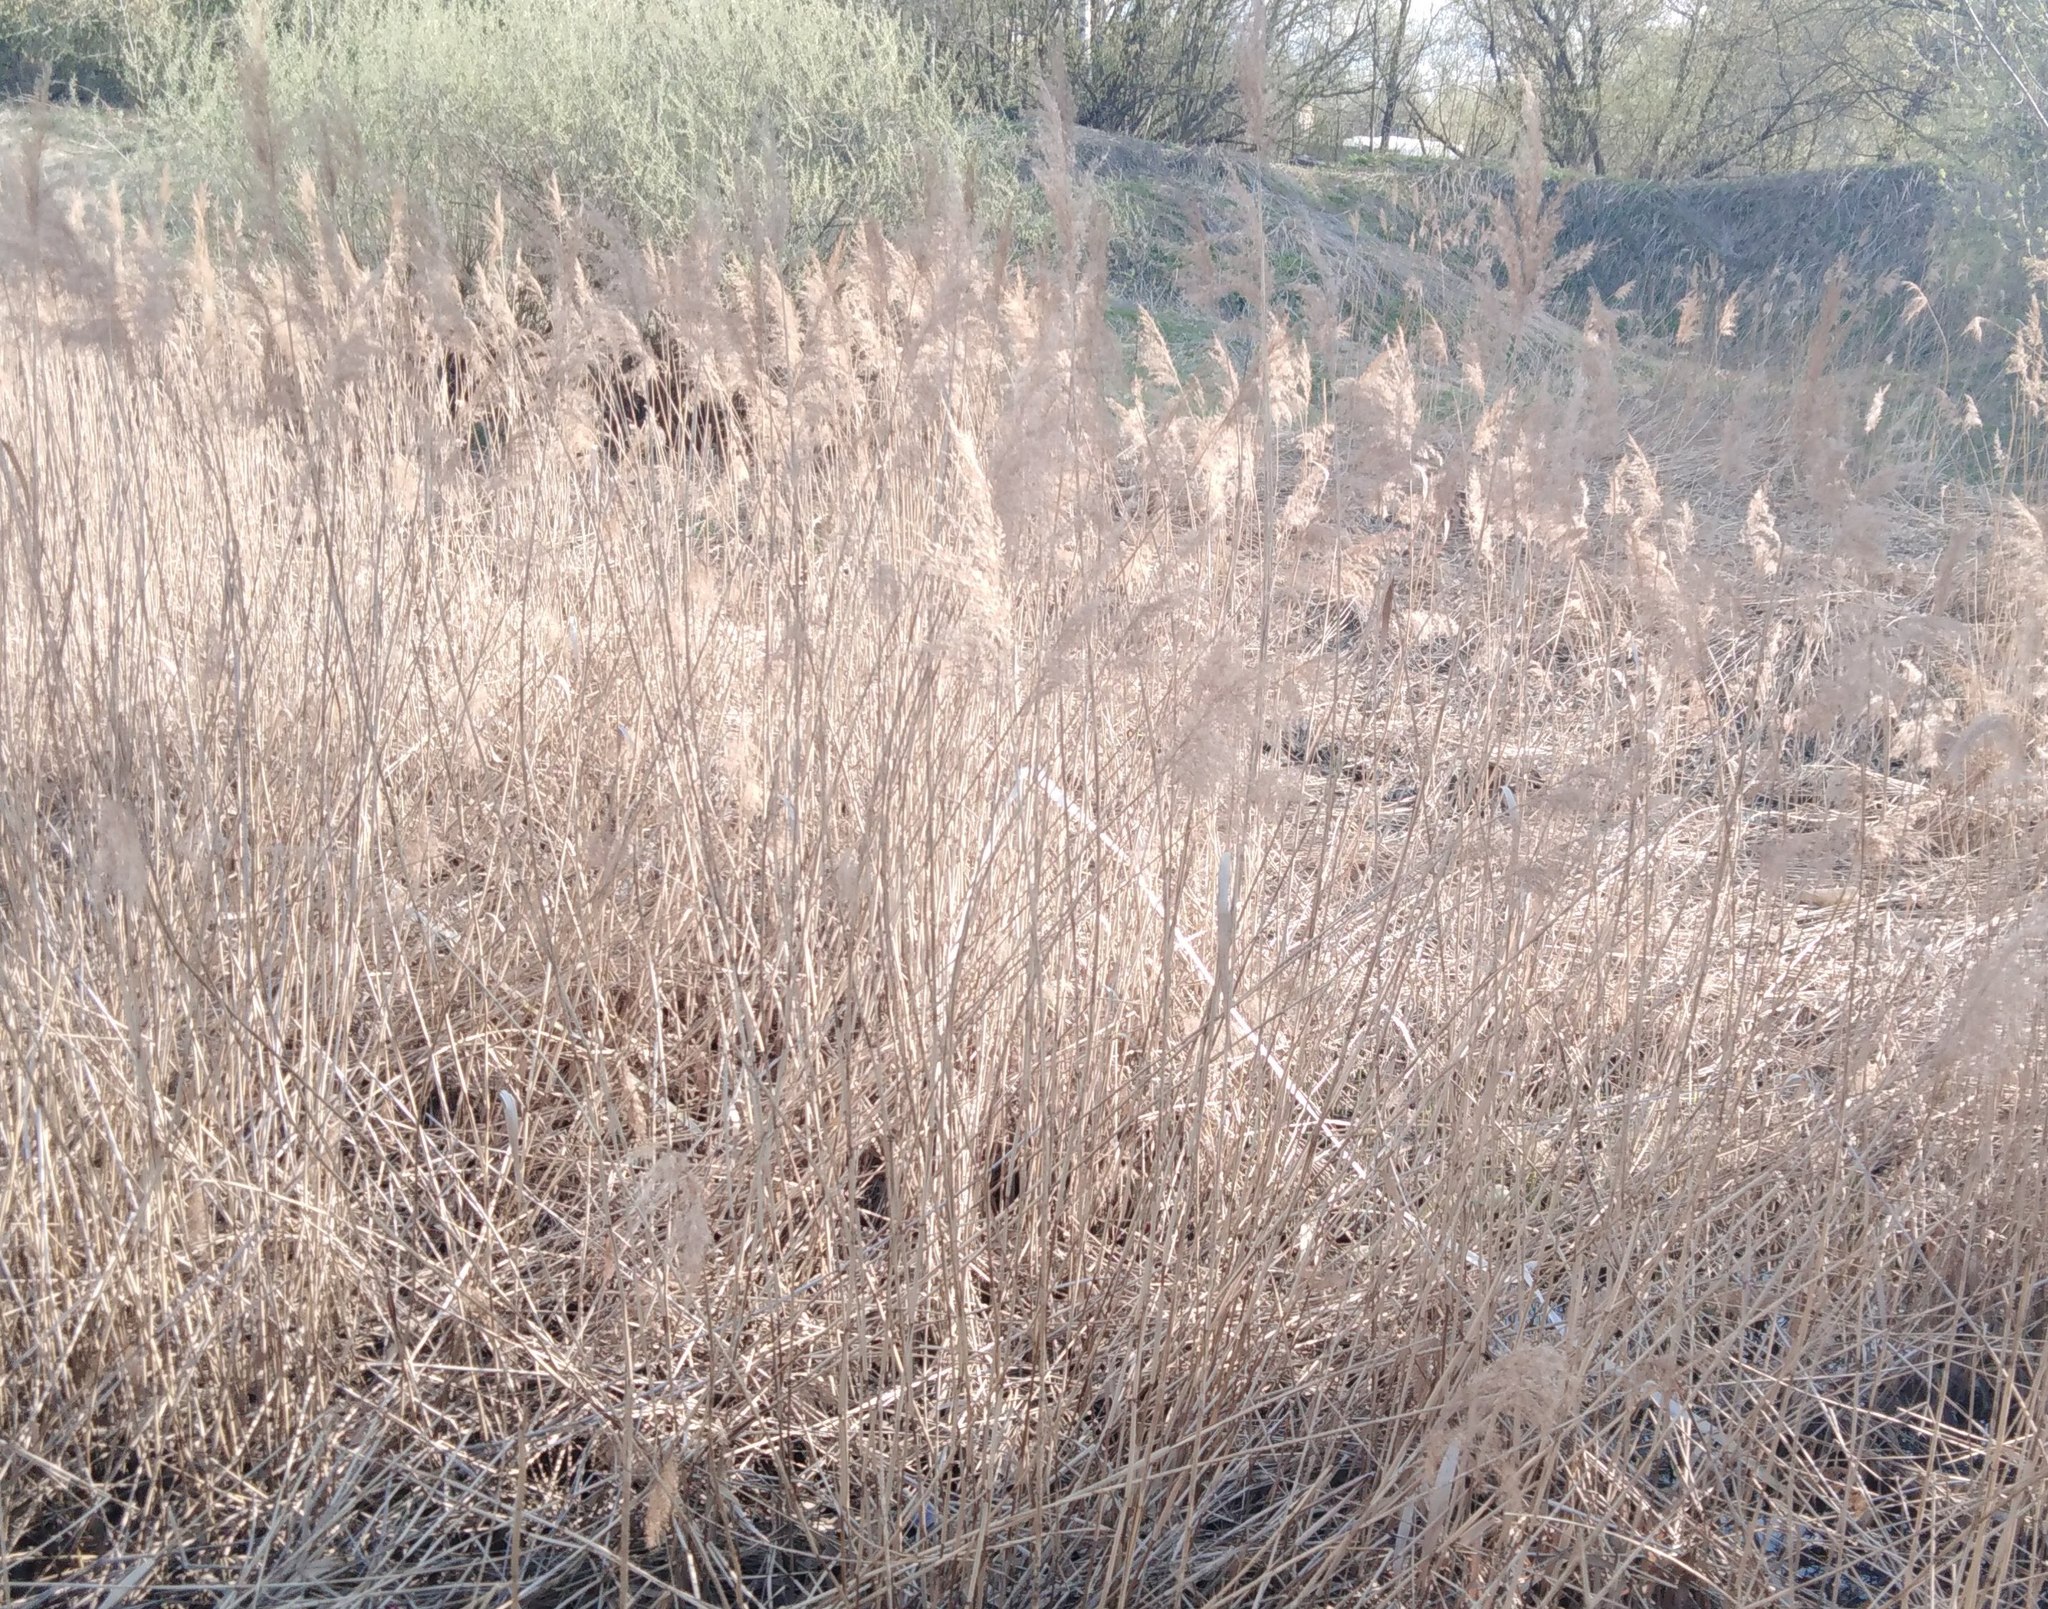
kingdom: Plantae
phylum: Tracheophyta
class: Liliopsida
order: Poales
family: Poaceae
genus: Phragmites
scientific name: Phragmites australis
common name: Common reed
